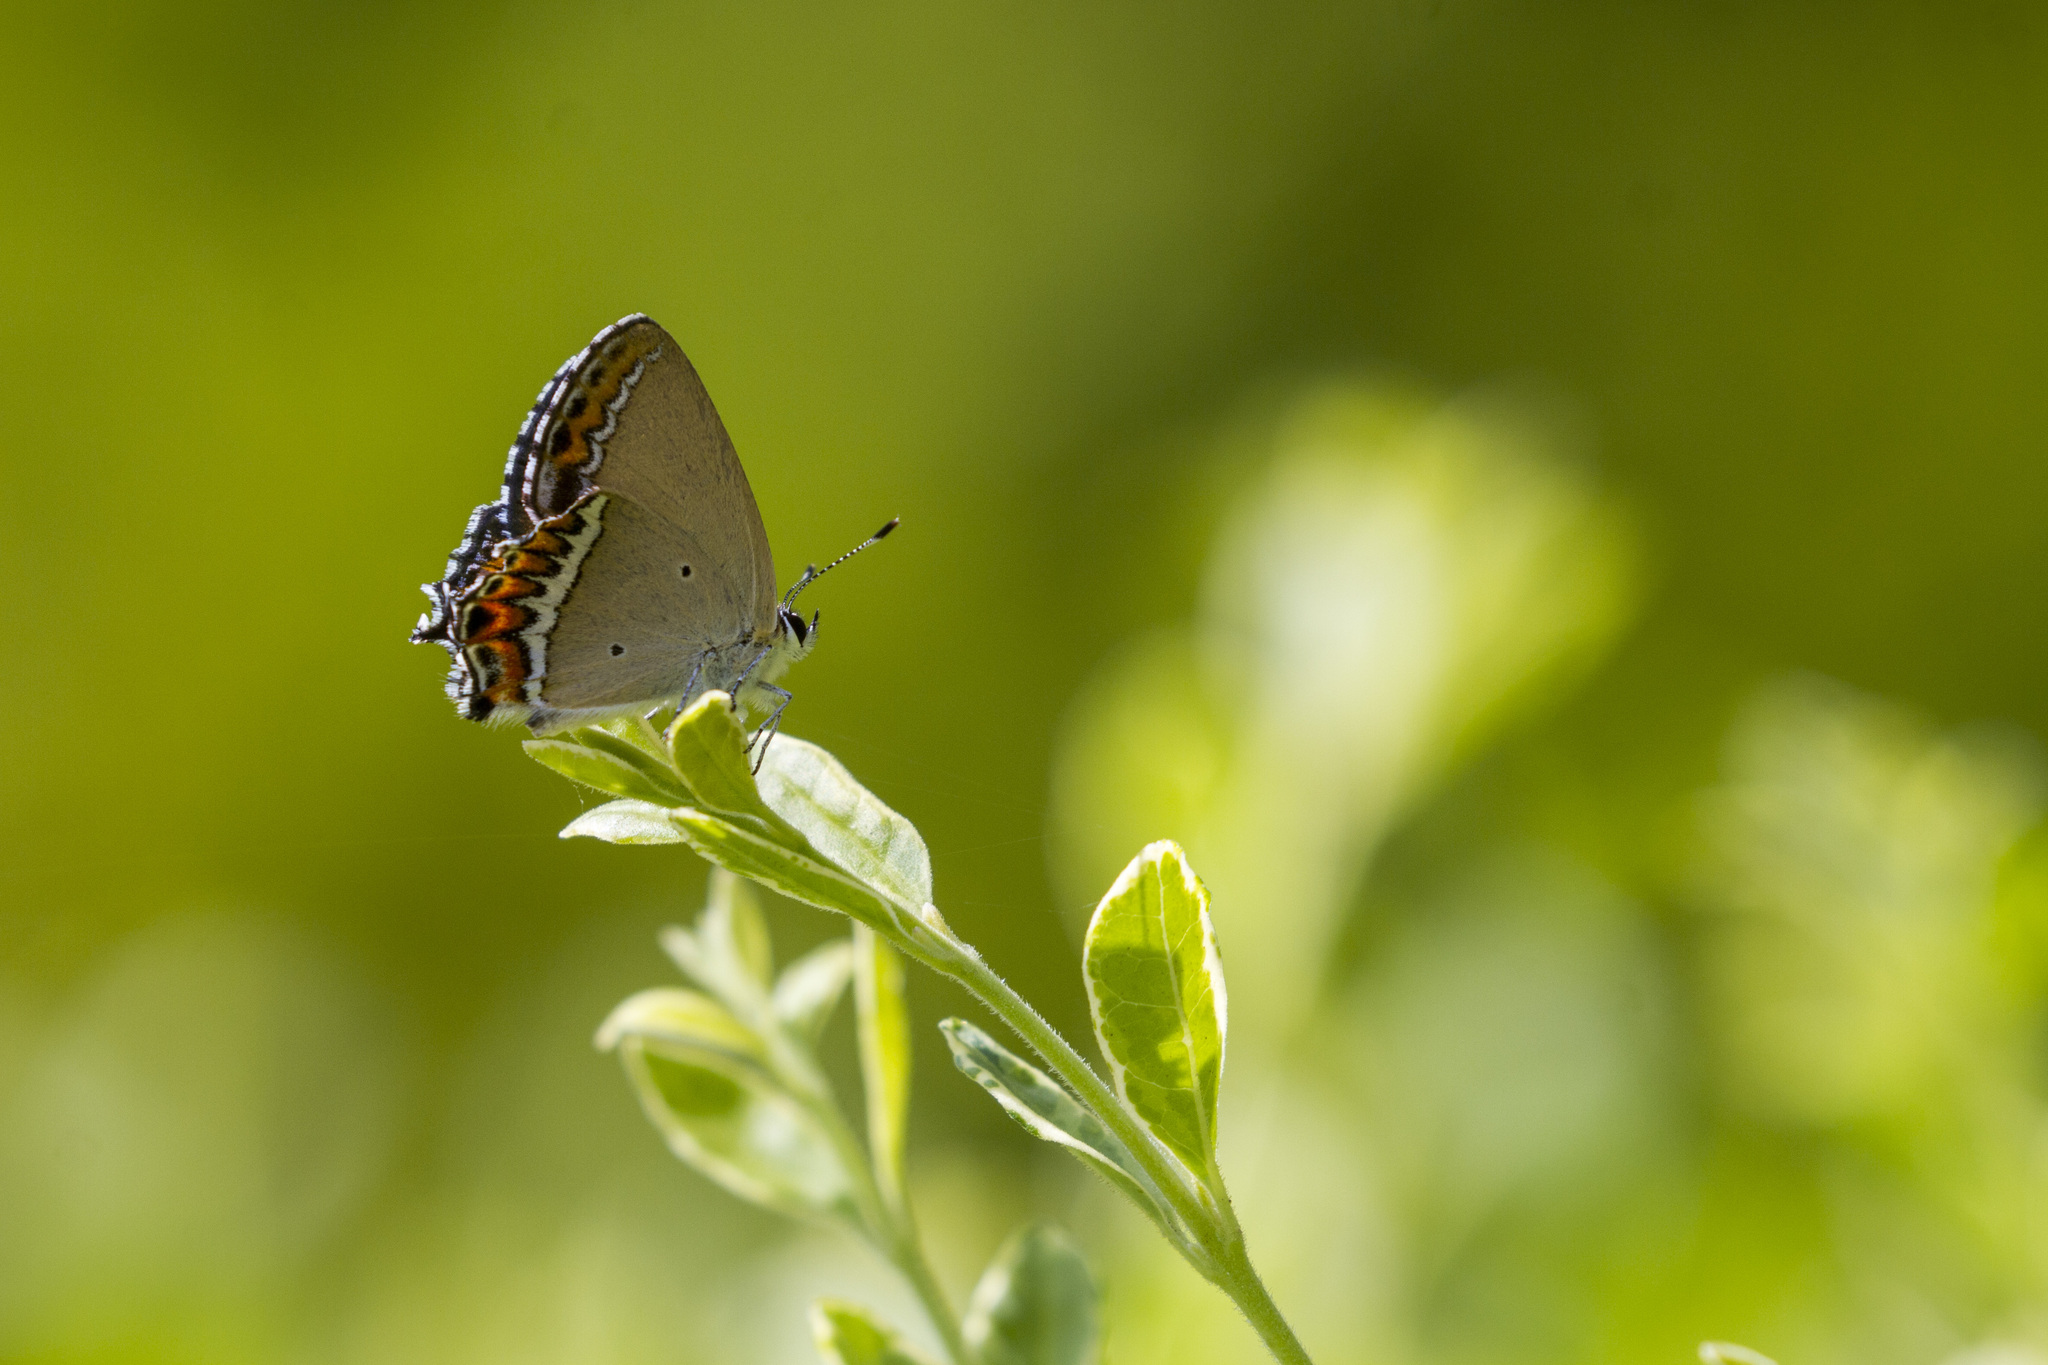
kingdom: Animalia
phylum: Arthropoda
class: Insecta
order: Lepidoptera
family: Lycaenidae
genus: Heliophorus
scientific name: Heliophorus sena
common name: Sorrel sapphire
